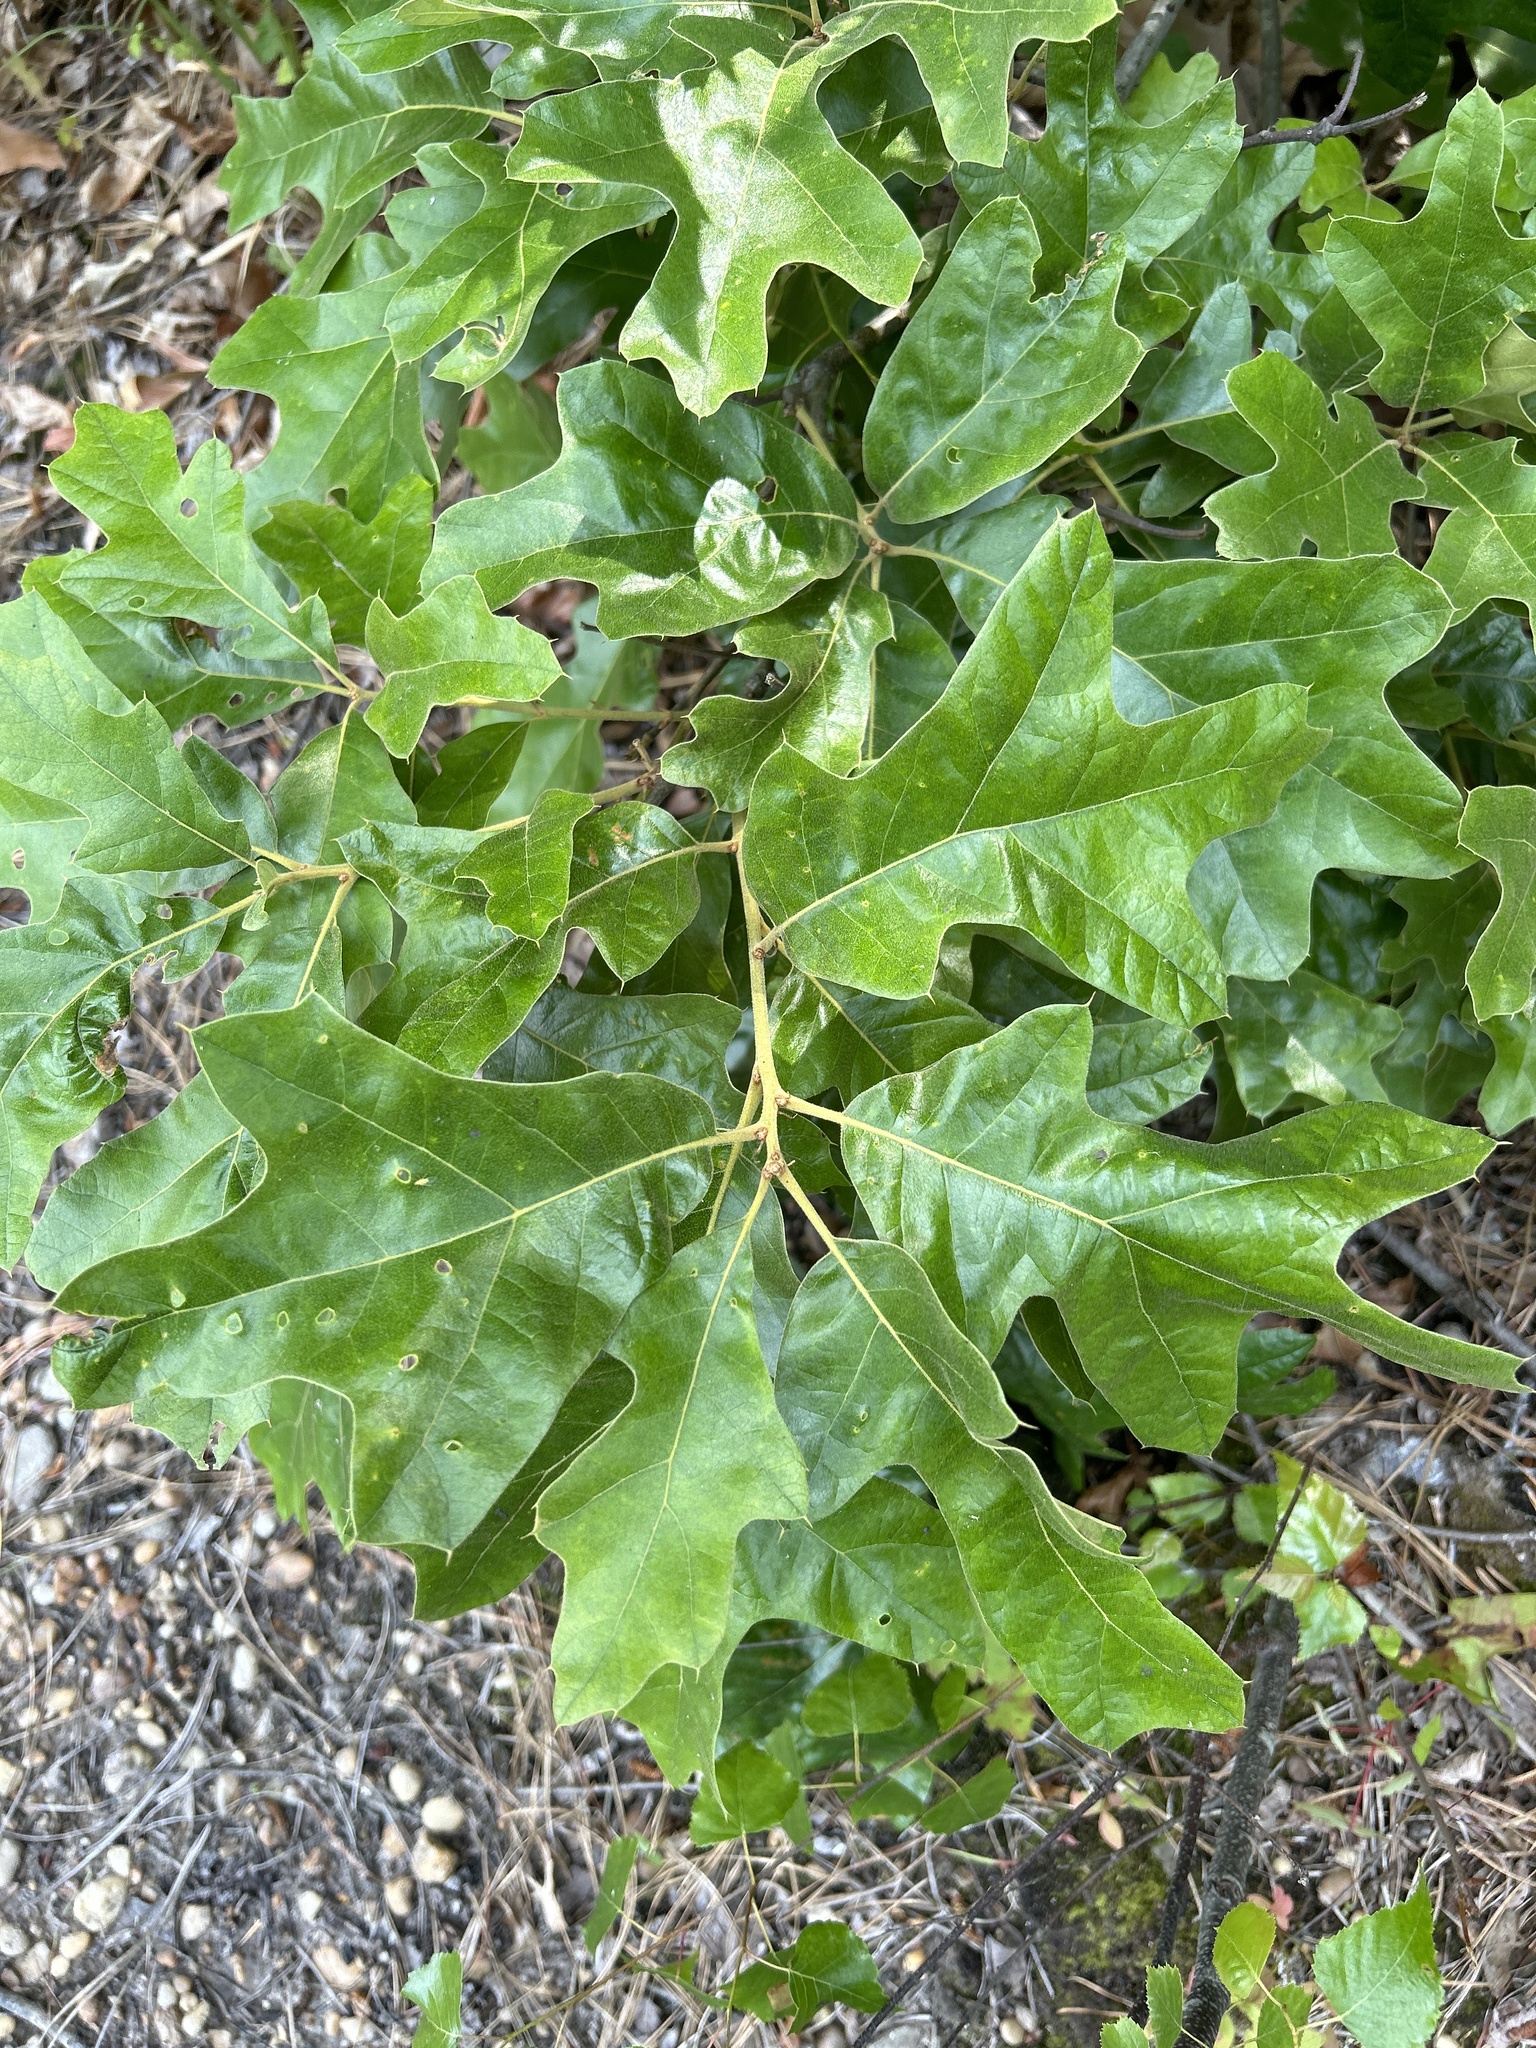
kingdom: Plantae
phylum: Tracheophyta
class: Magnoliopsida
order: Fagales
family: Fagaceae
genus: Quercus
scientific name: Quercus falcata
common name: Southern red oak
